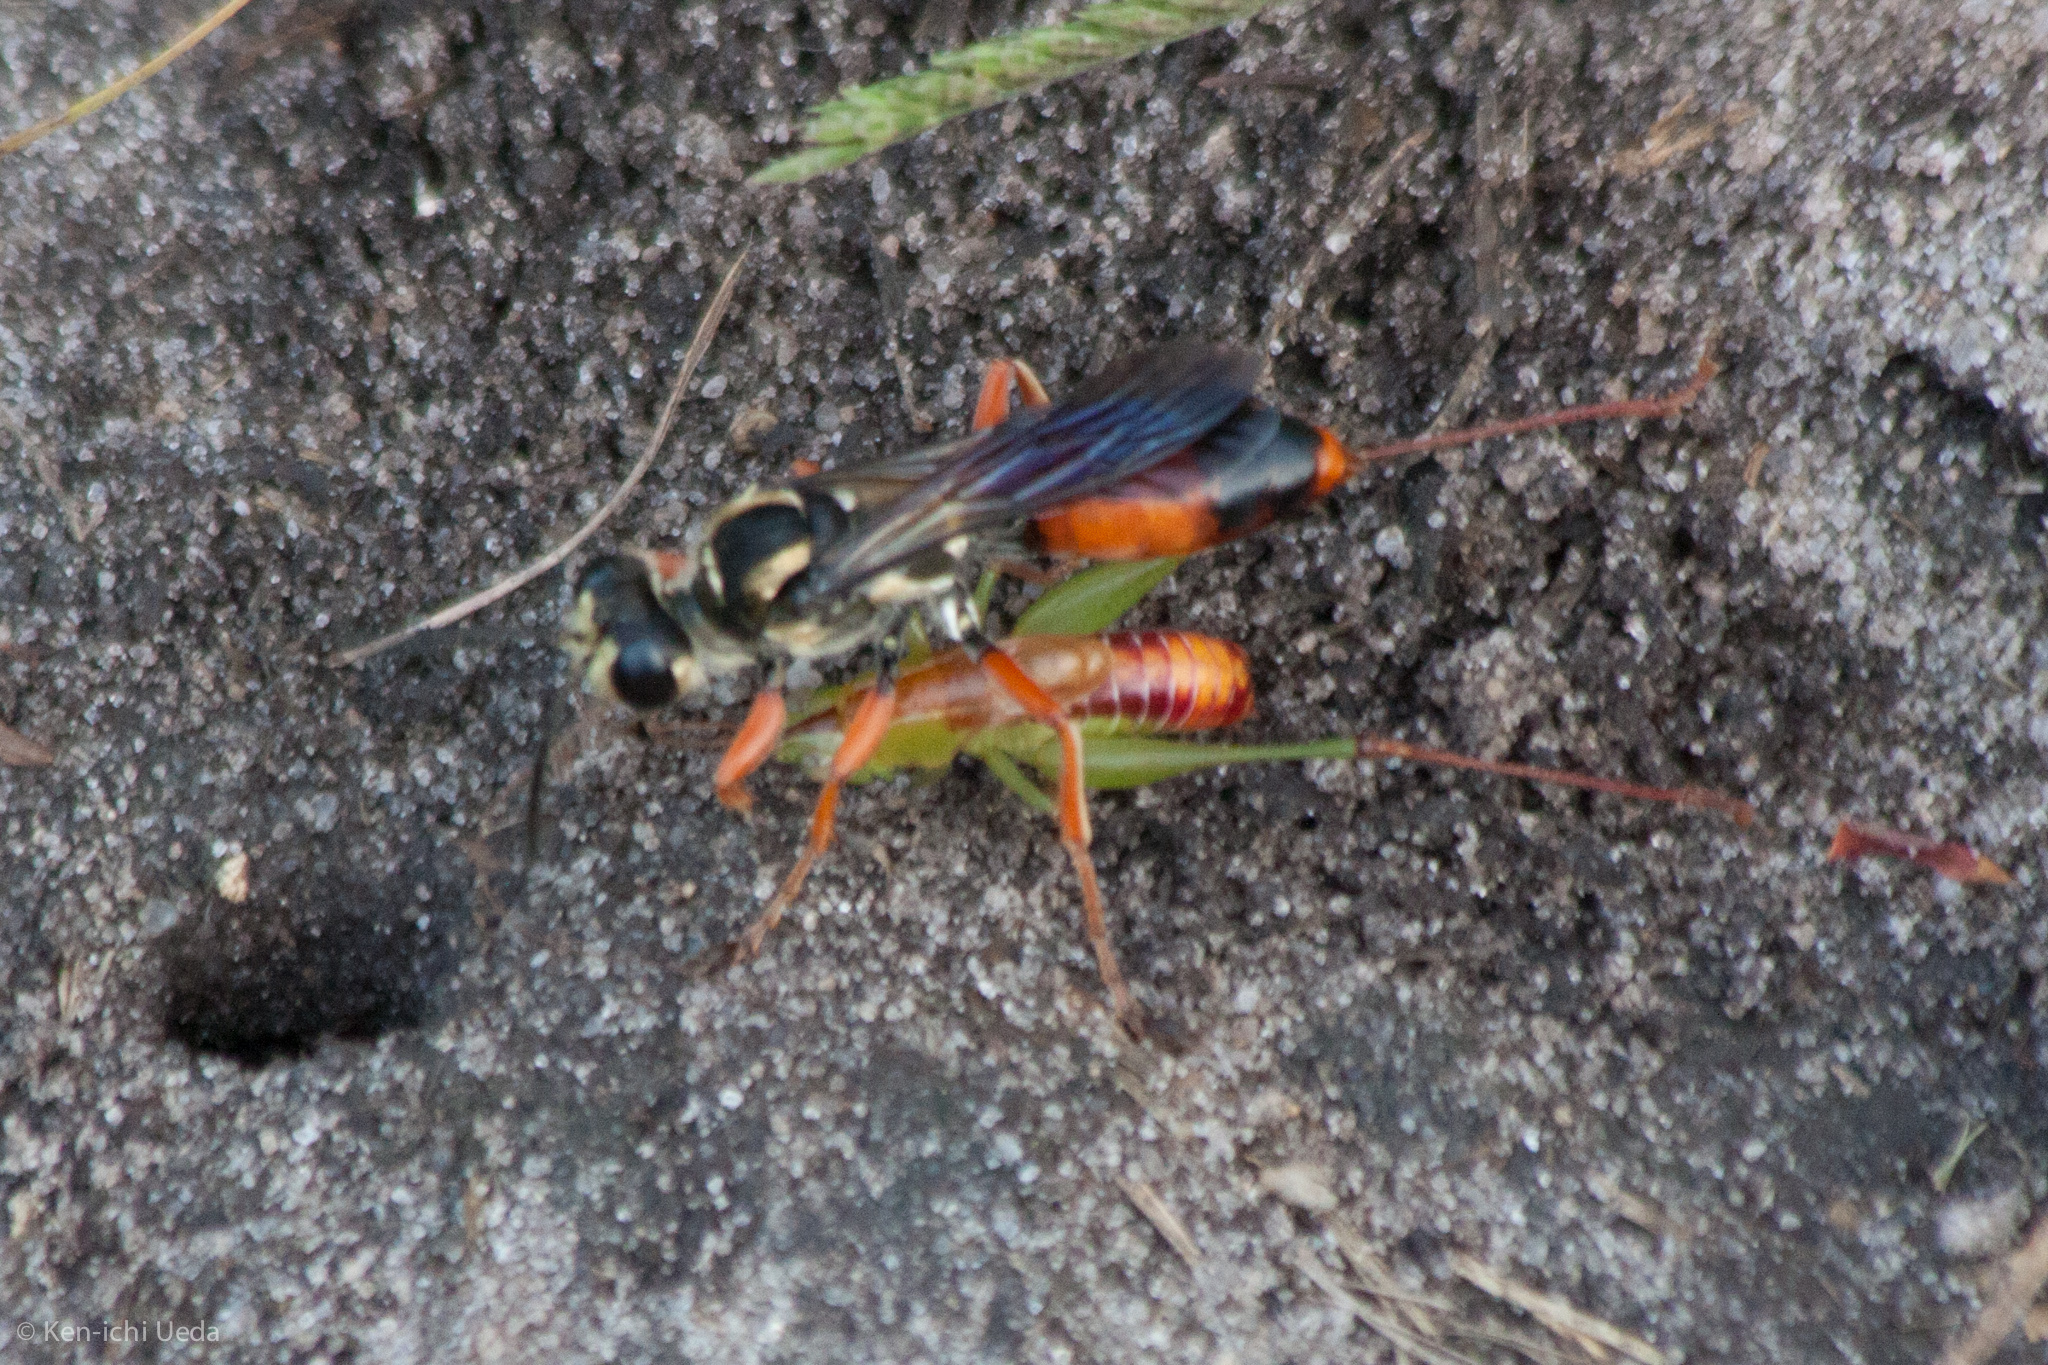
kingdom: Animalia
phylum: Arthropoda
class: Insecta
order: Hymenoptera
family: Sphecidae
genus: Sphex
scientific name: Sphex dorsalis
